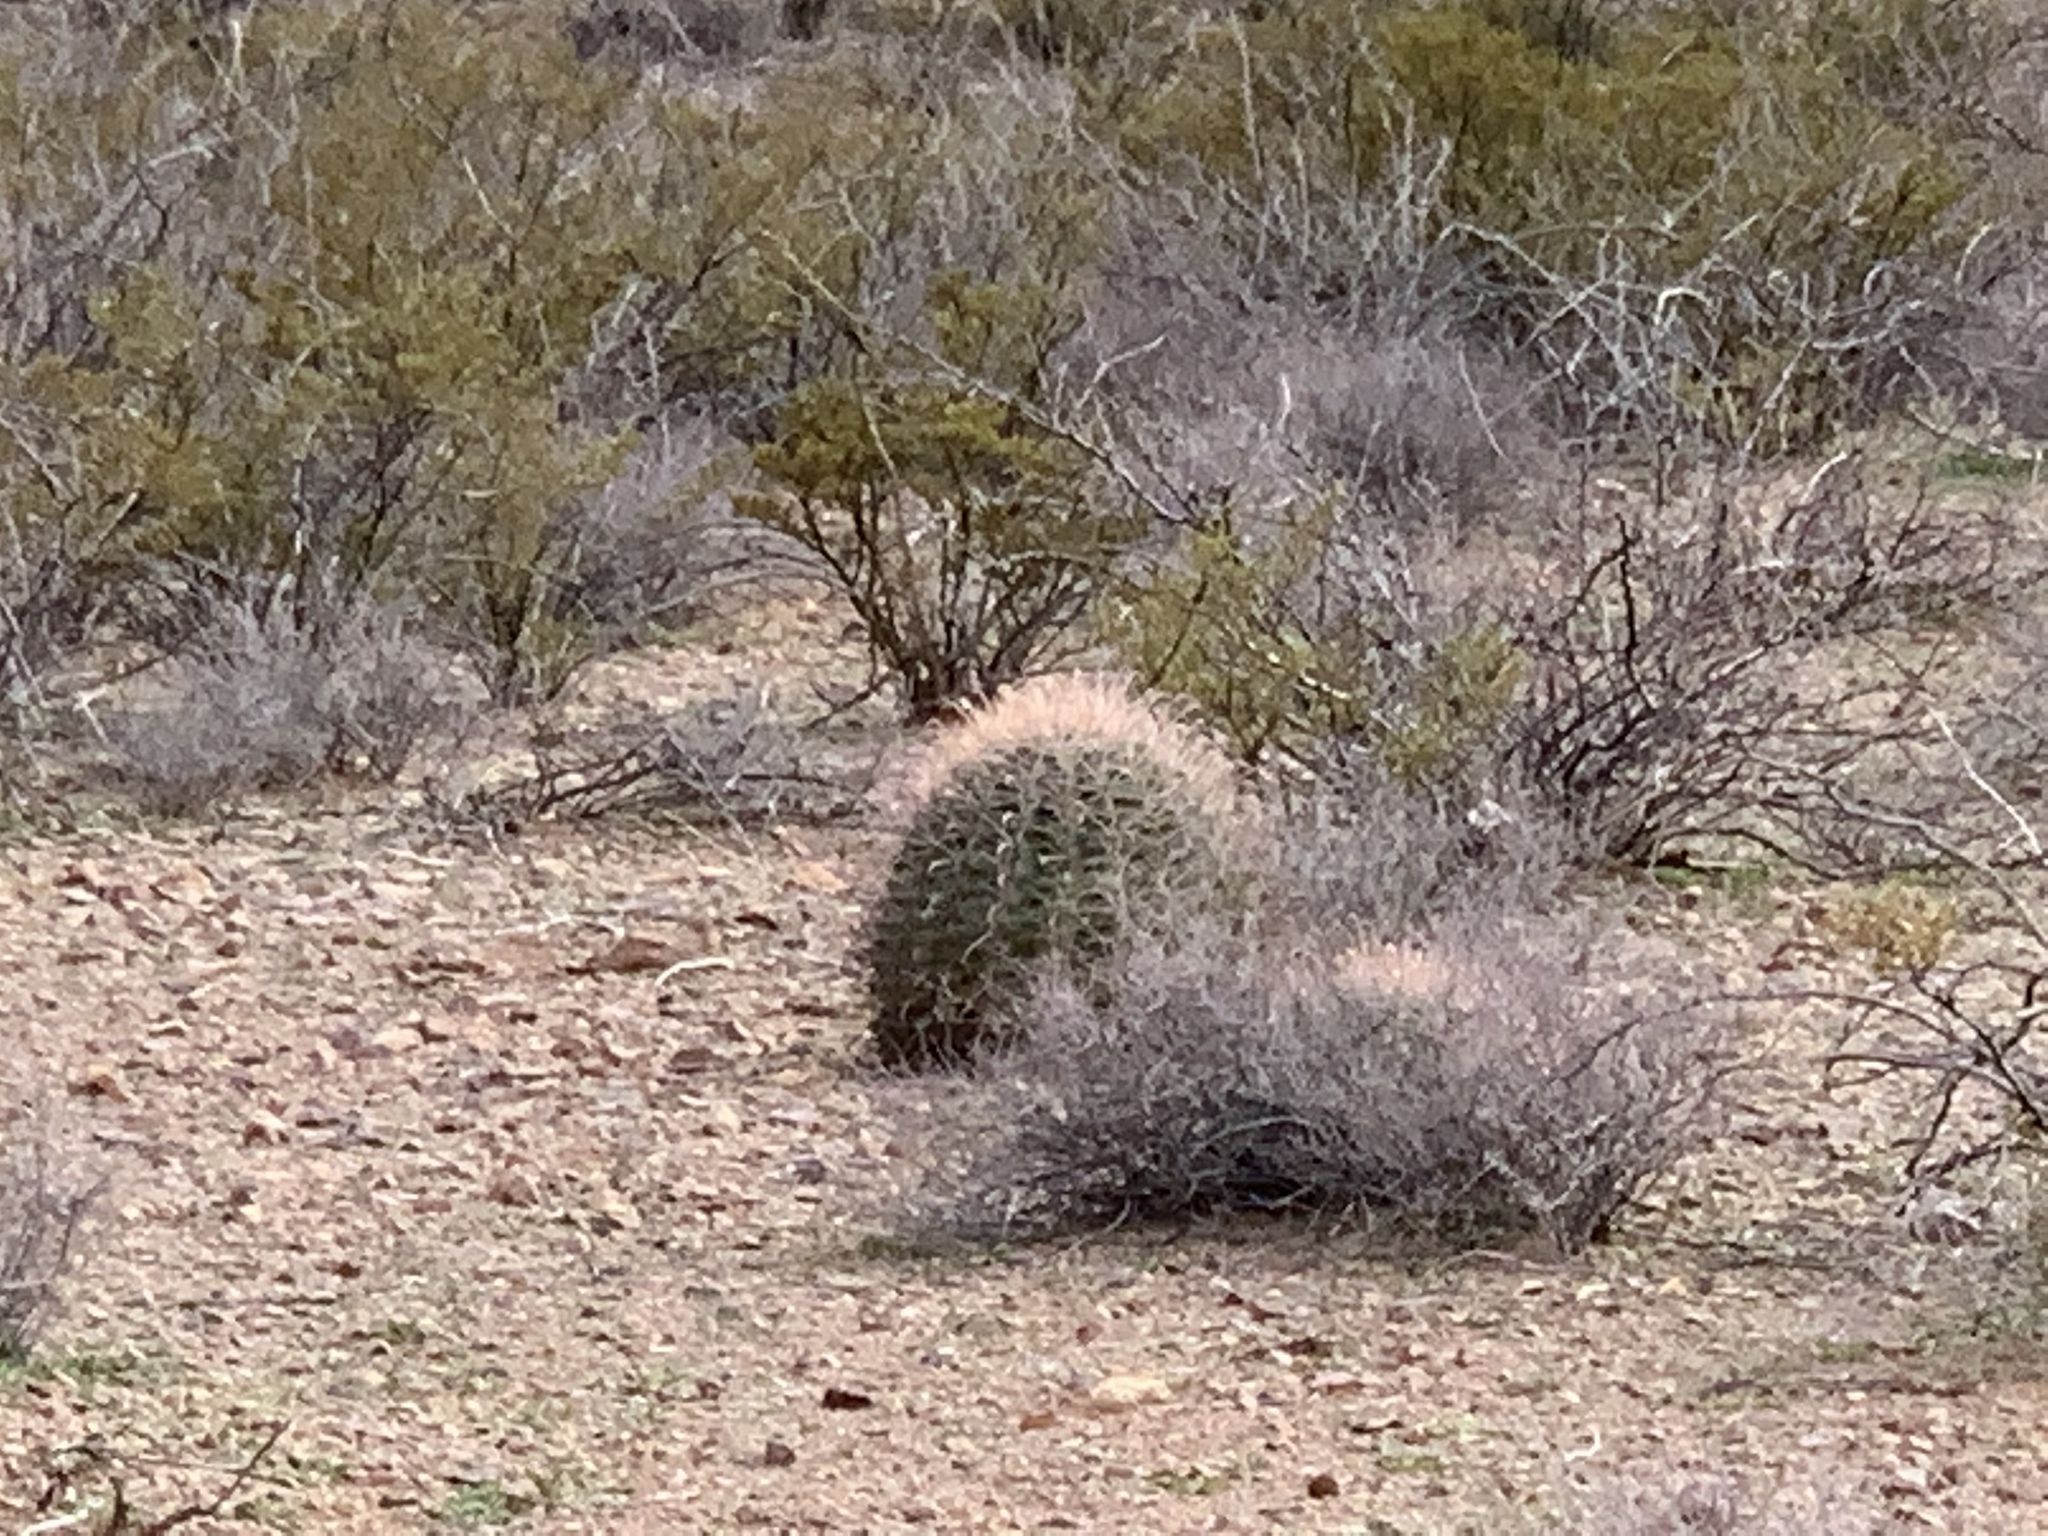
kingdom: Plantae
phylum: Tracheophyta
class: Magnoliopsida
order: Caryophyllales
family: Cactaceae
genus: Ferocactus
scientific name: Ferocactus wislizeni
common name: Candy barrel cactus
